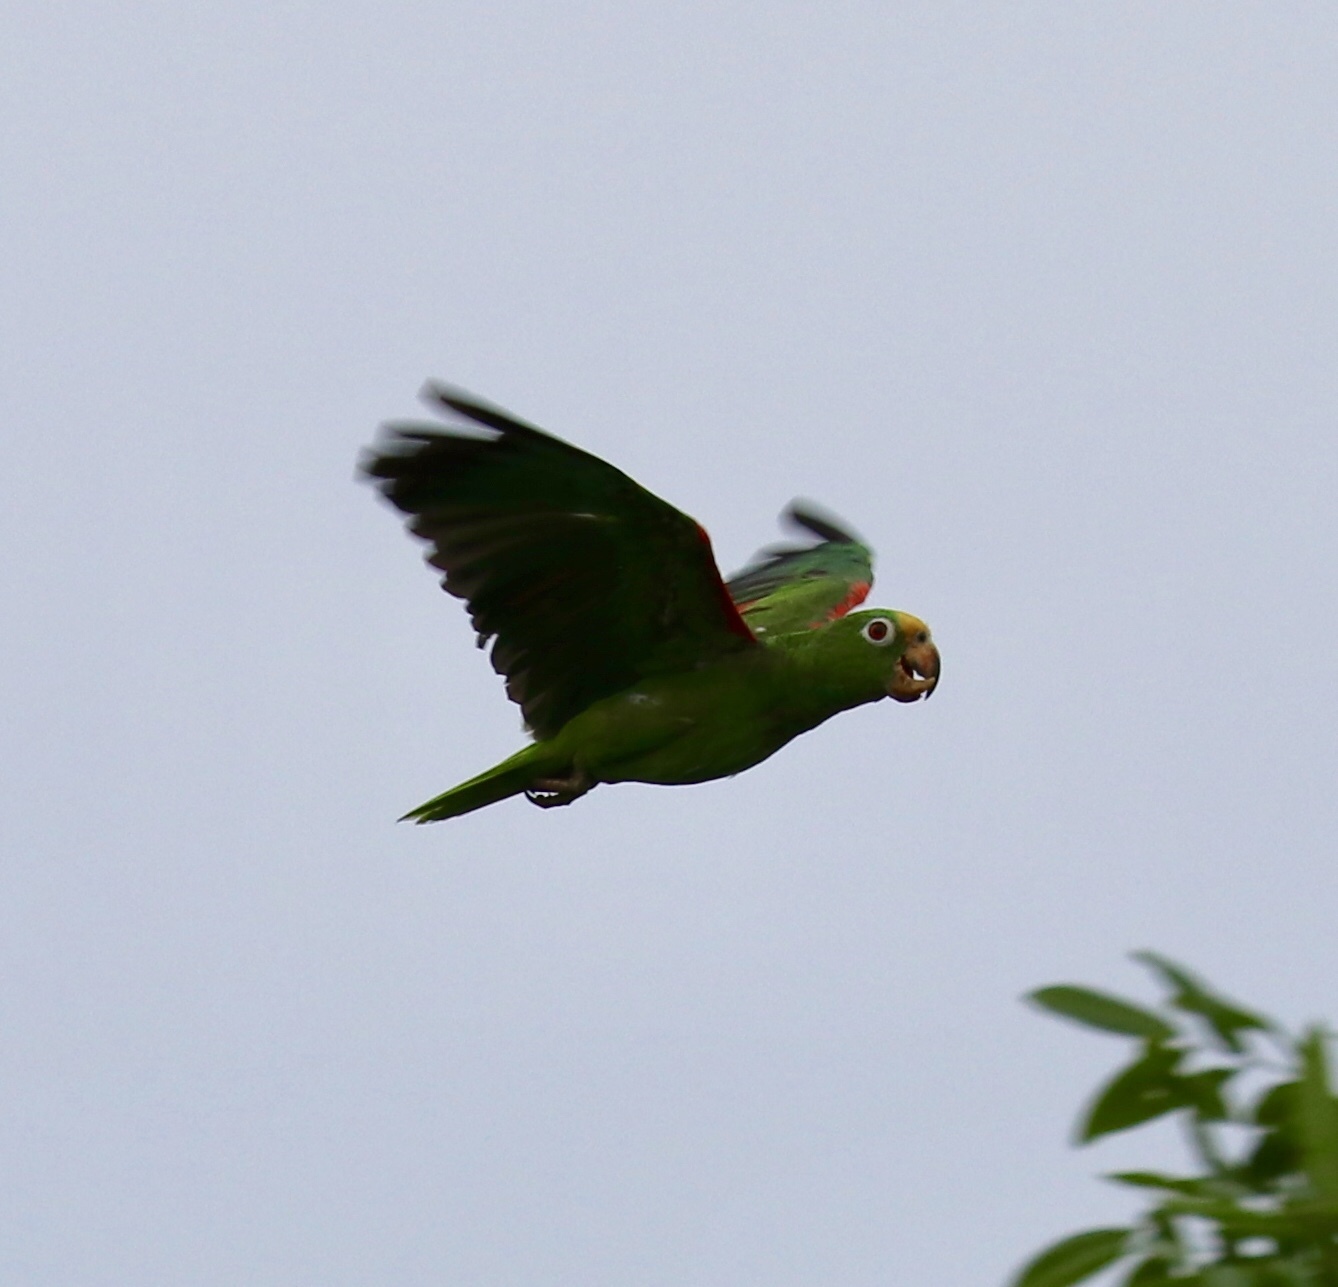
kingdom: Animalia
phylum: Chordata
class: Aves
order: Psittaciformes
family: Psittacidae
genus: Amazona
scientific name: Amazona ochrocephala
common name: Yellow-crowned amazon
